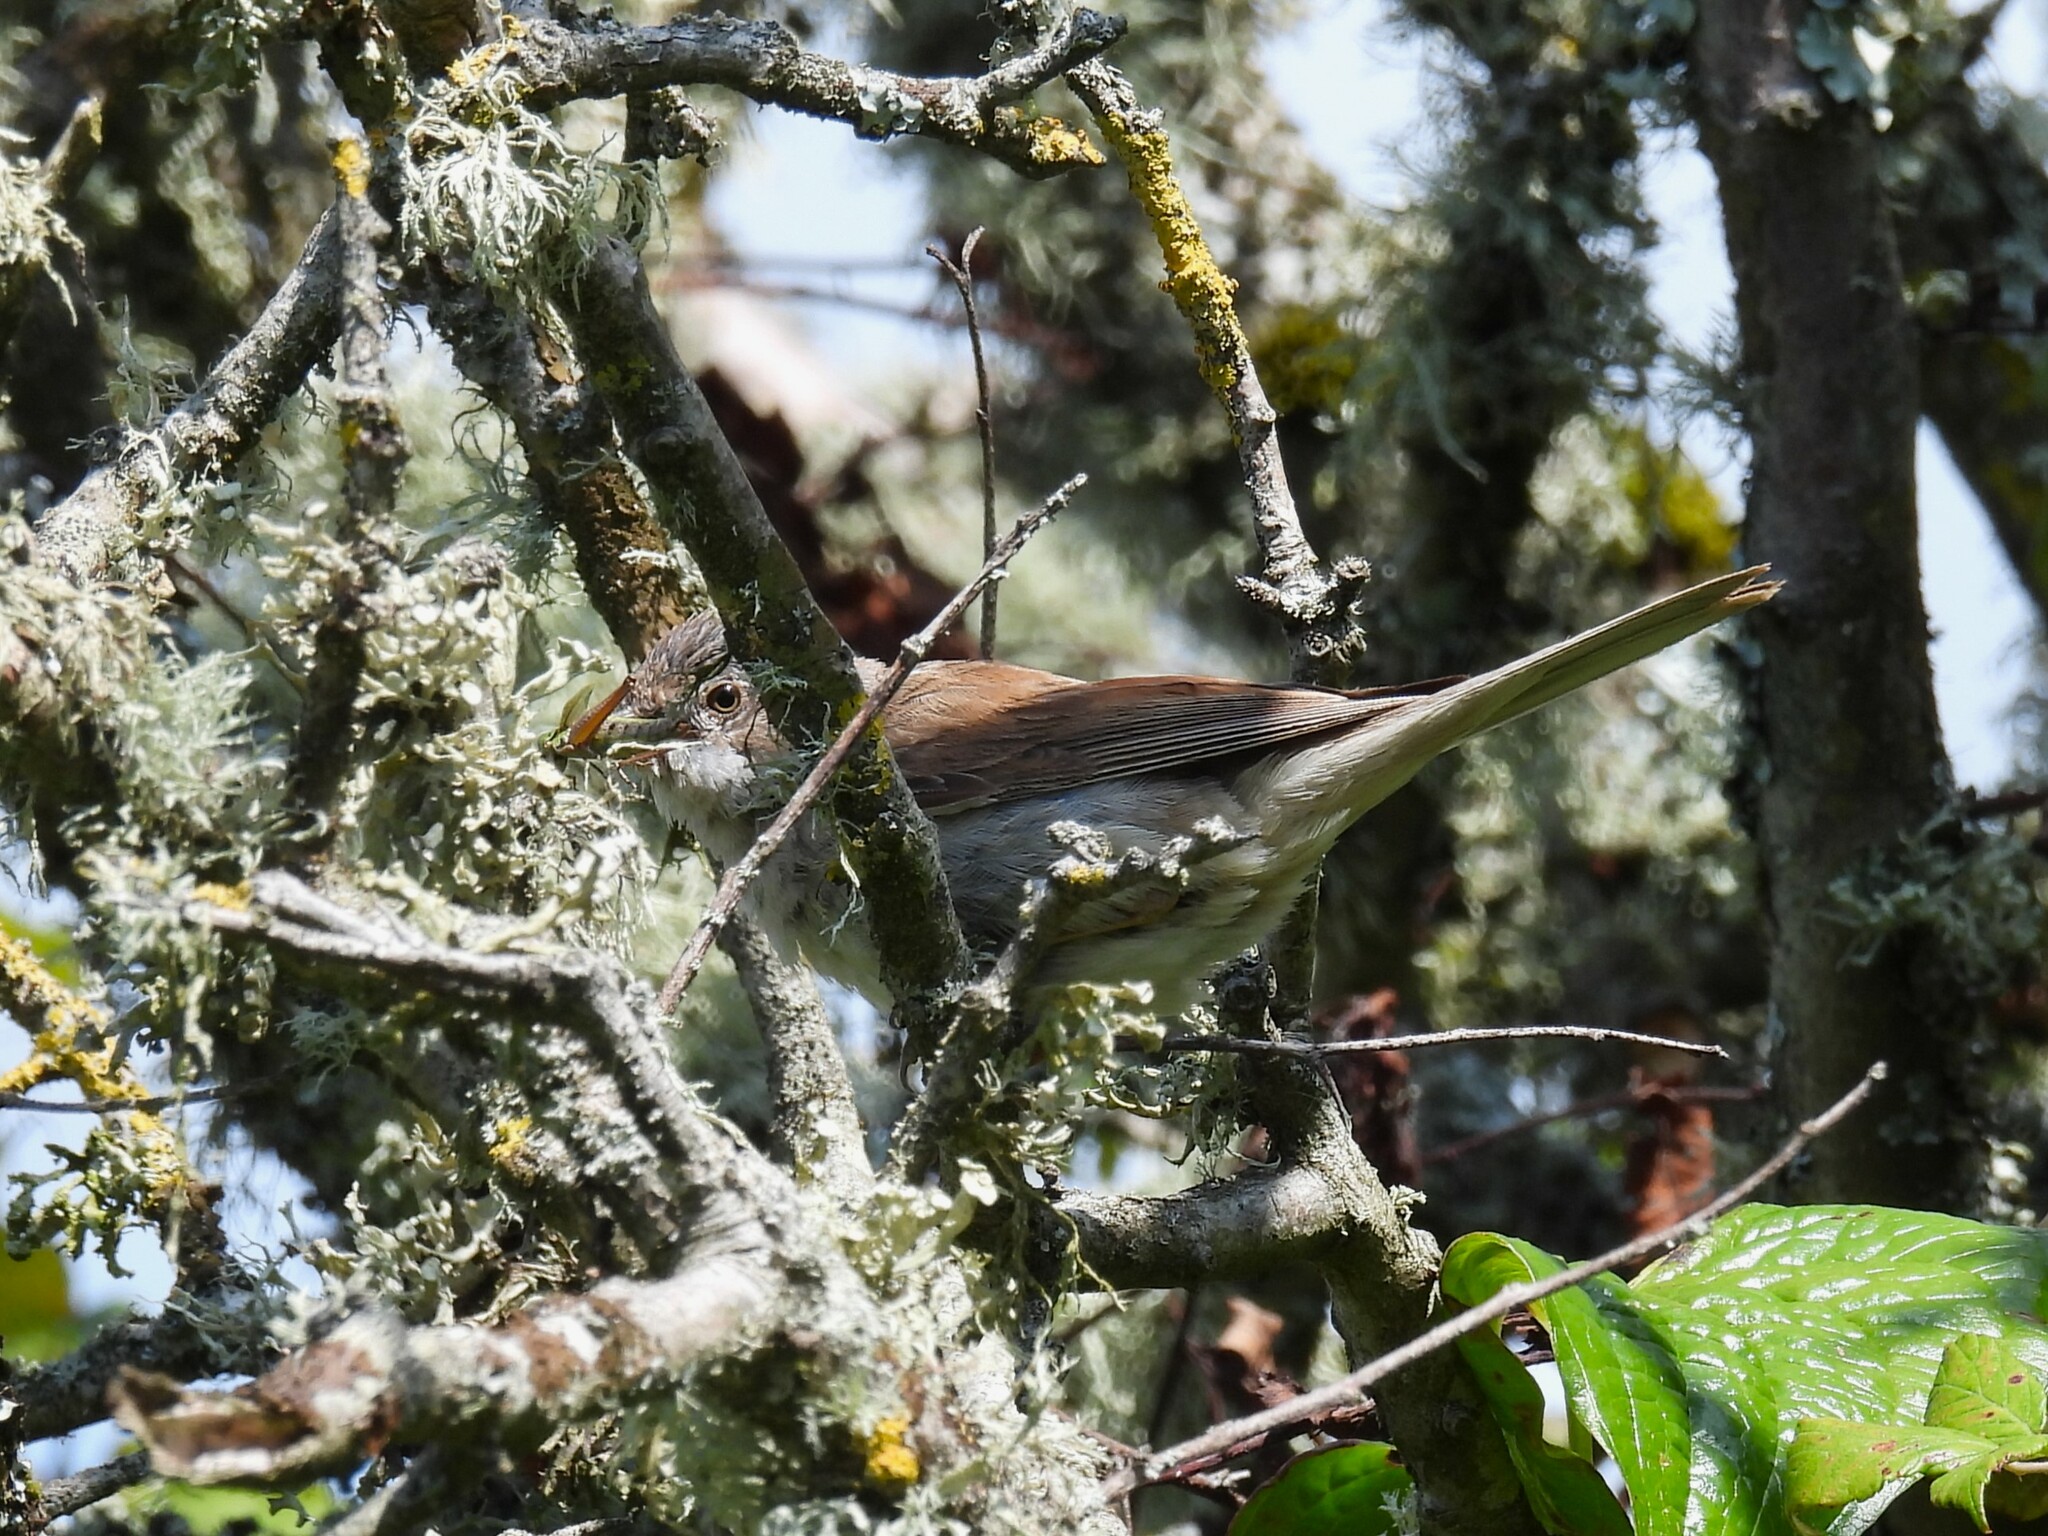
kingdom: Animalia
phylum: Chordata
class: Aves
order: Passeriformes
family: Sylviidae
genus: Sylvia
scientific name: Sylvia communis
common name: Common whitethroat
